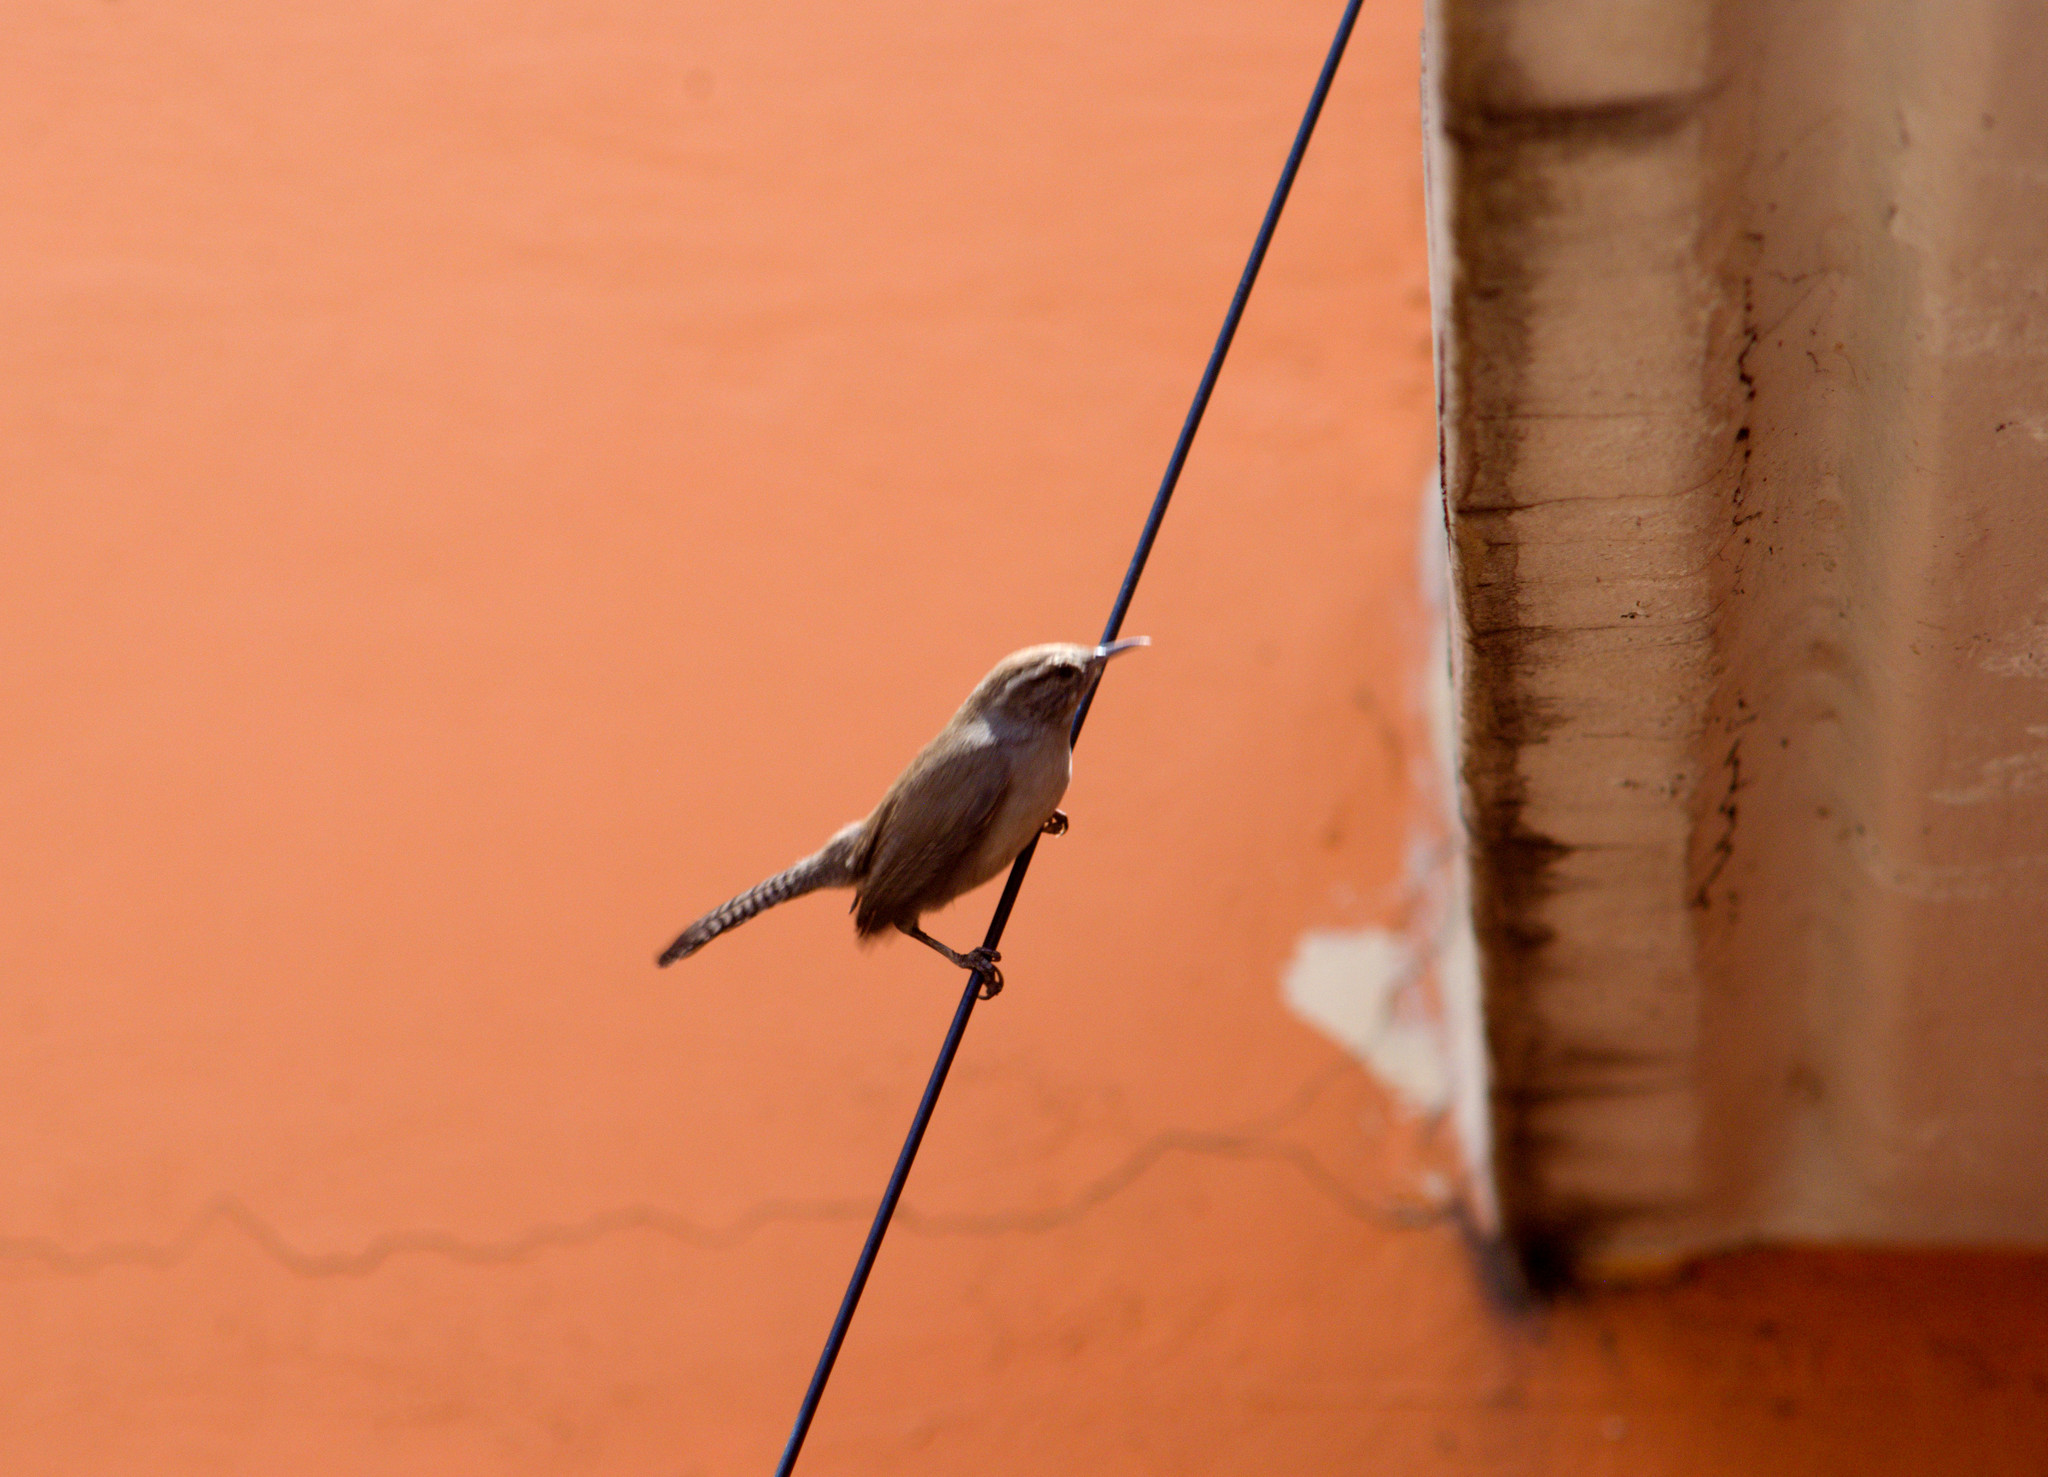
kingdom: Animalia
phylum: Chordata
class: Aves
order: Passeriformes
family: Troglodytidae
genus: Thryomanes
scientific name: Thryomanes bewickii
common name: Bewick's wren
